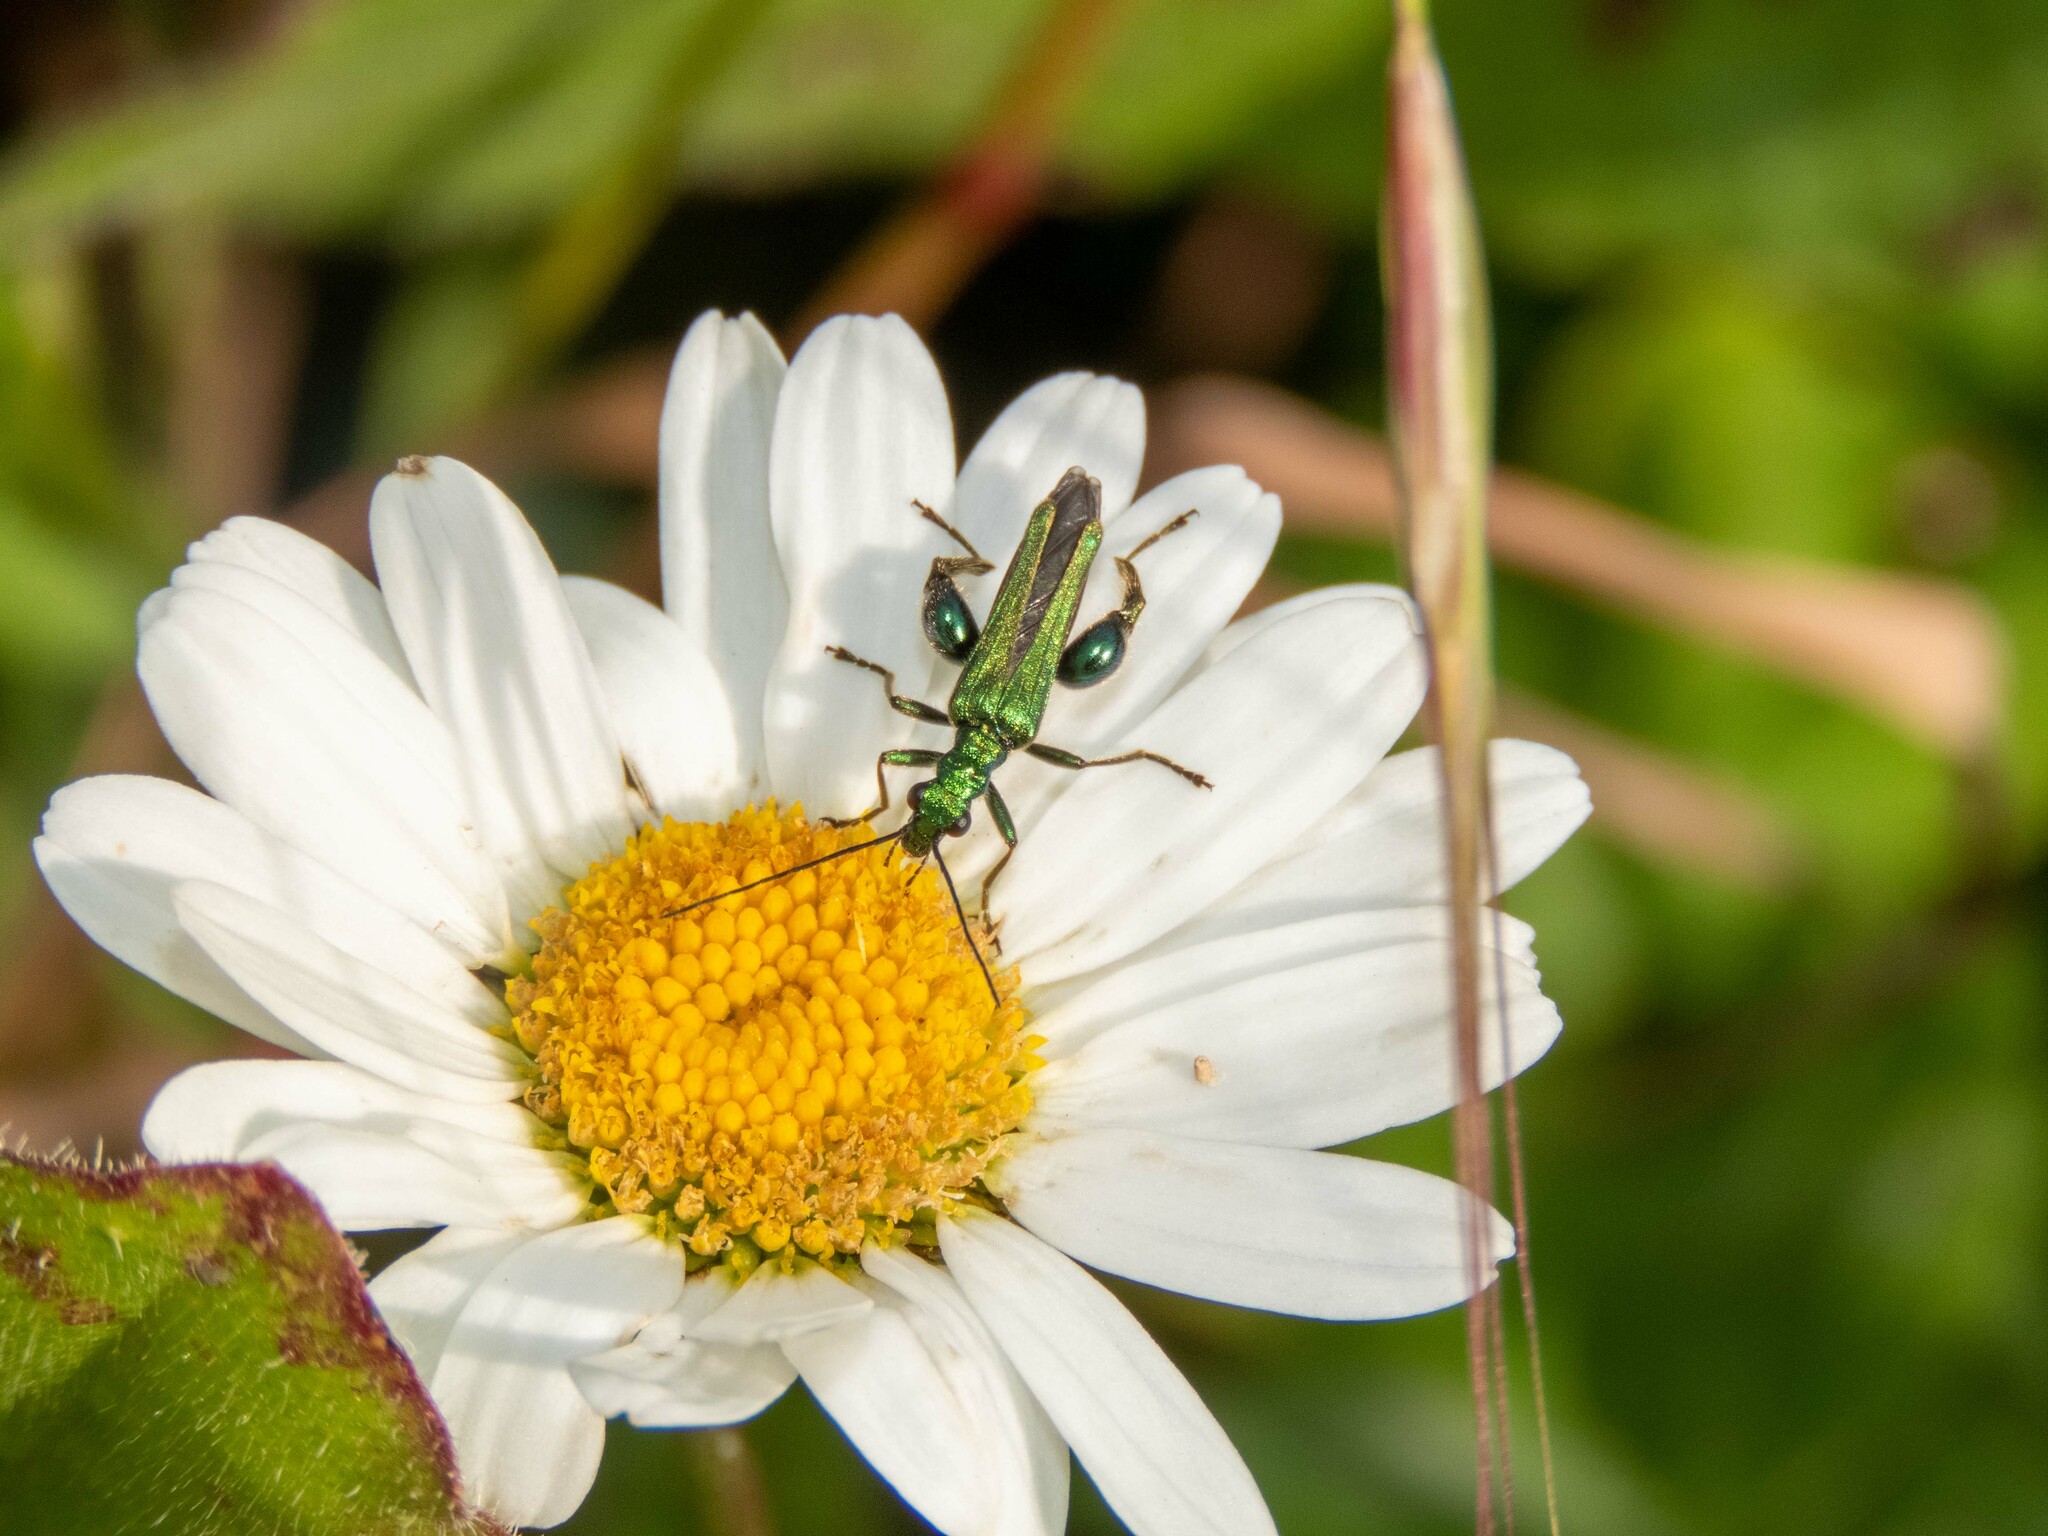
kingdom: Animalia
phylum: Arthropoda
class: Insecta
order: Coleoptera
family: Oedemeridae
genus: Oedemera
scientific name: Oedemera nobilis
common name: Swollen-thighed beetle
